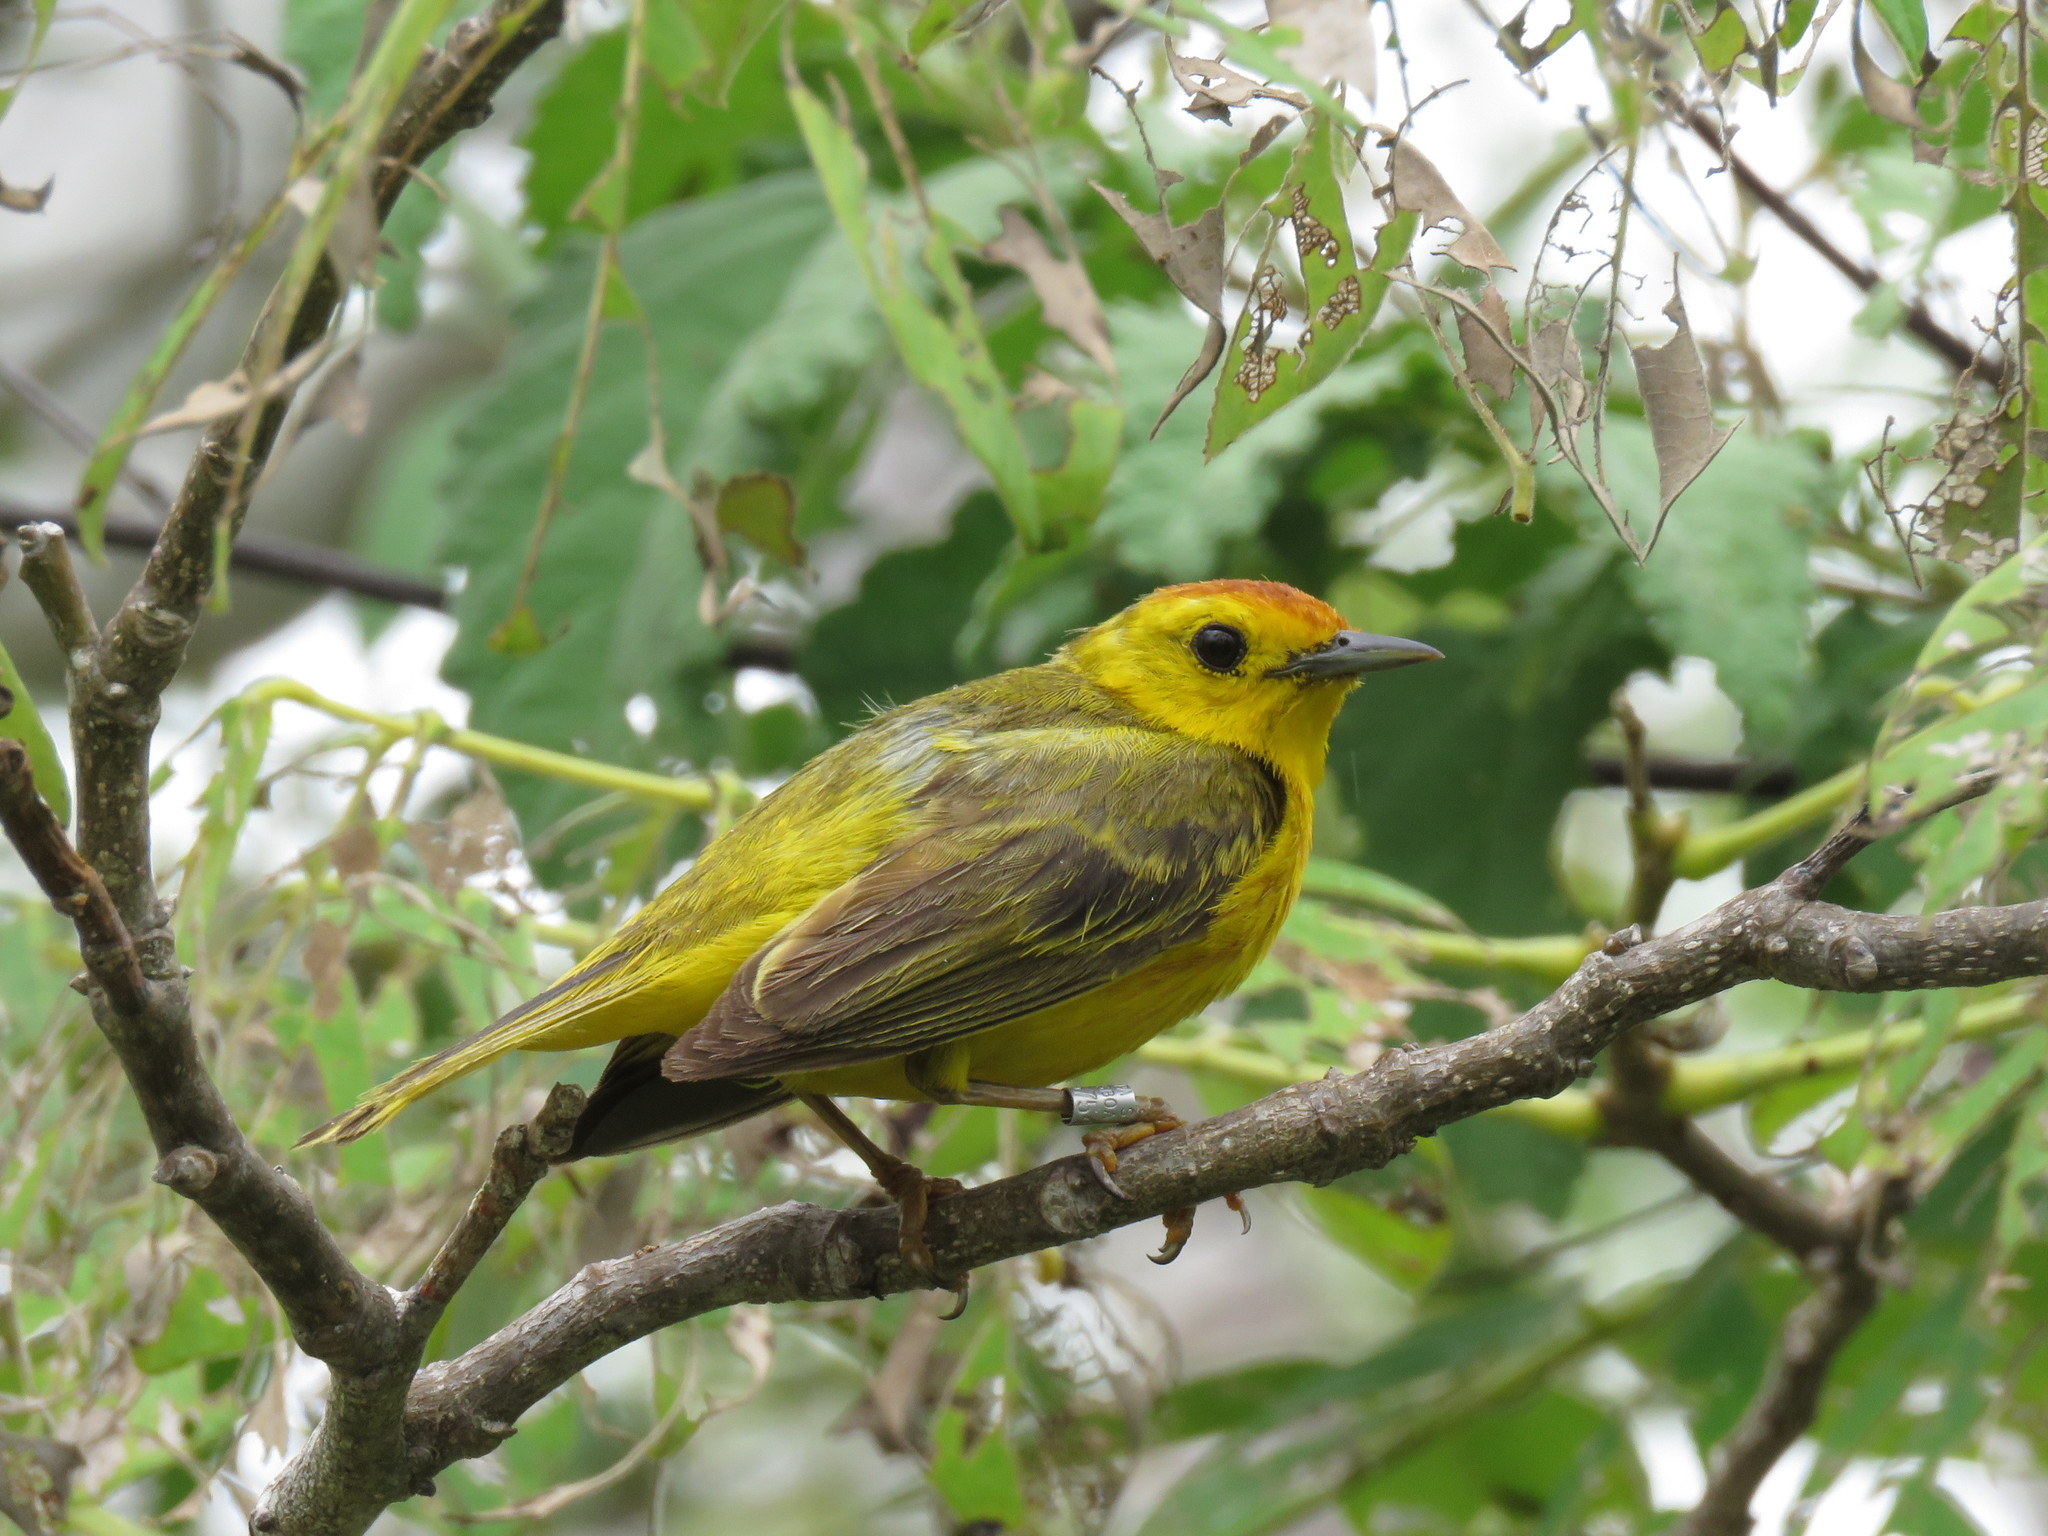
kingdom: Animalia
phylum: Chordata
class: Aves
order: Passeriformes
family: Parulidae
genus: Setophaga
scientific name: Setophaga petechia
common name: Yellow warbler
